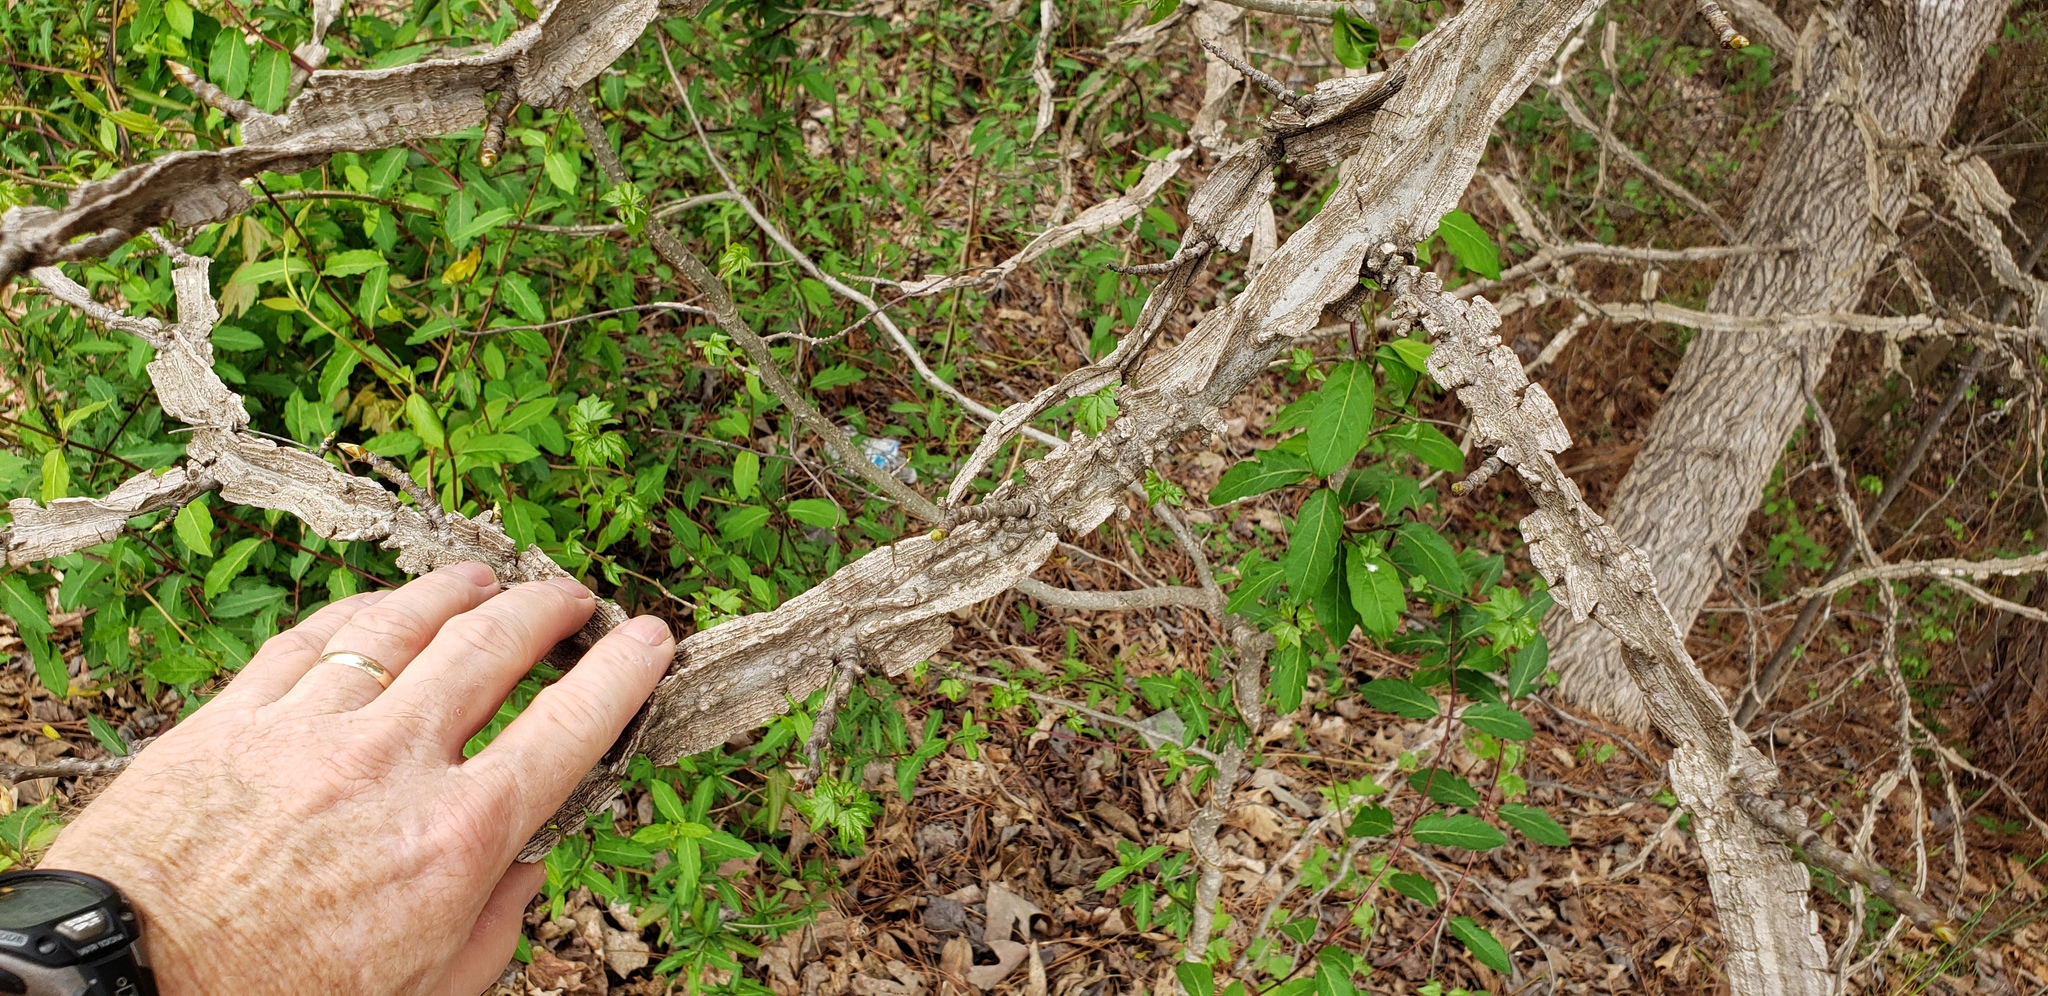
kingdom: Plantae
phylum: Tracheophyta
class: Magnoliopsida
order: Rosales
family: Ulmaceae
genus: Ulmus
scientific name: Ulmus alata
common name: Winged elm
